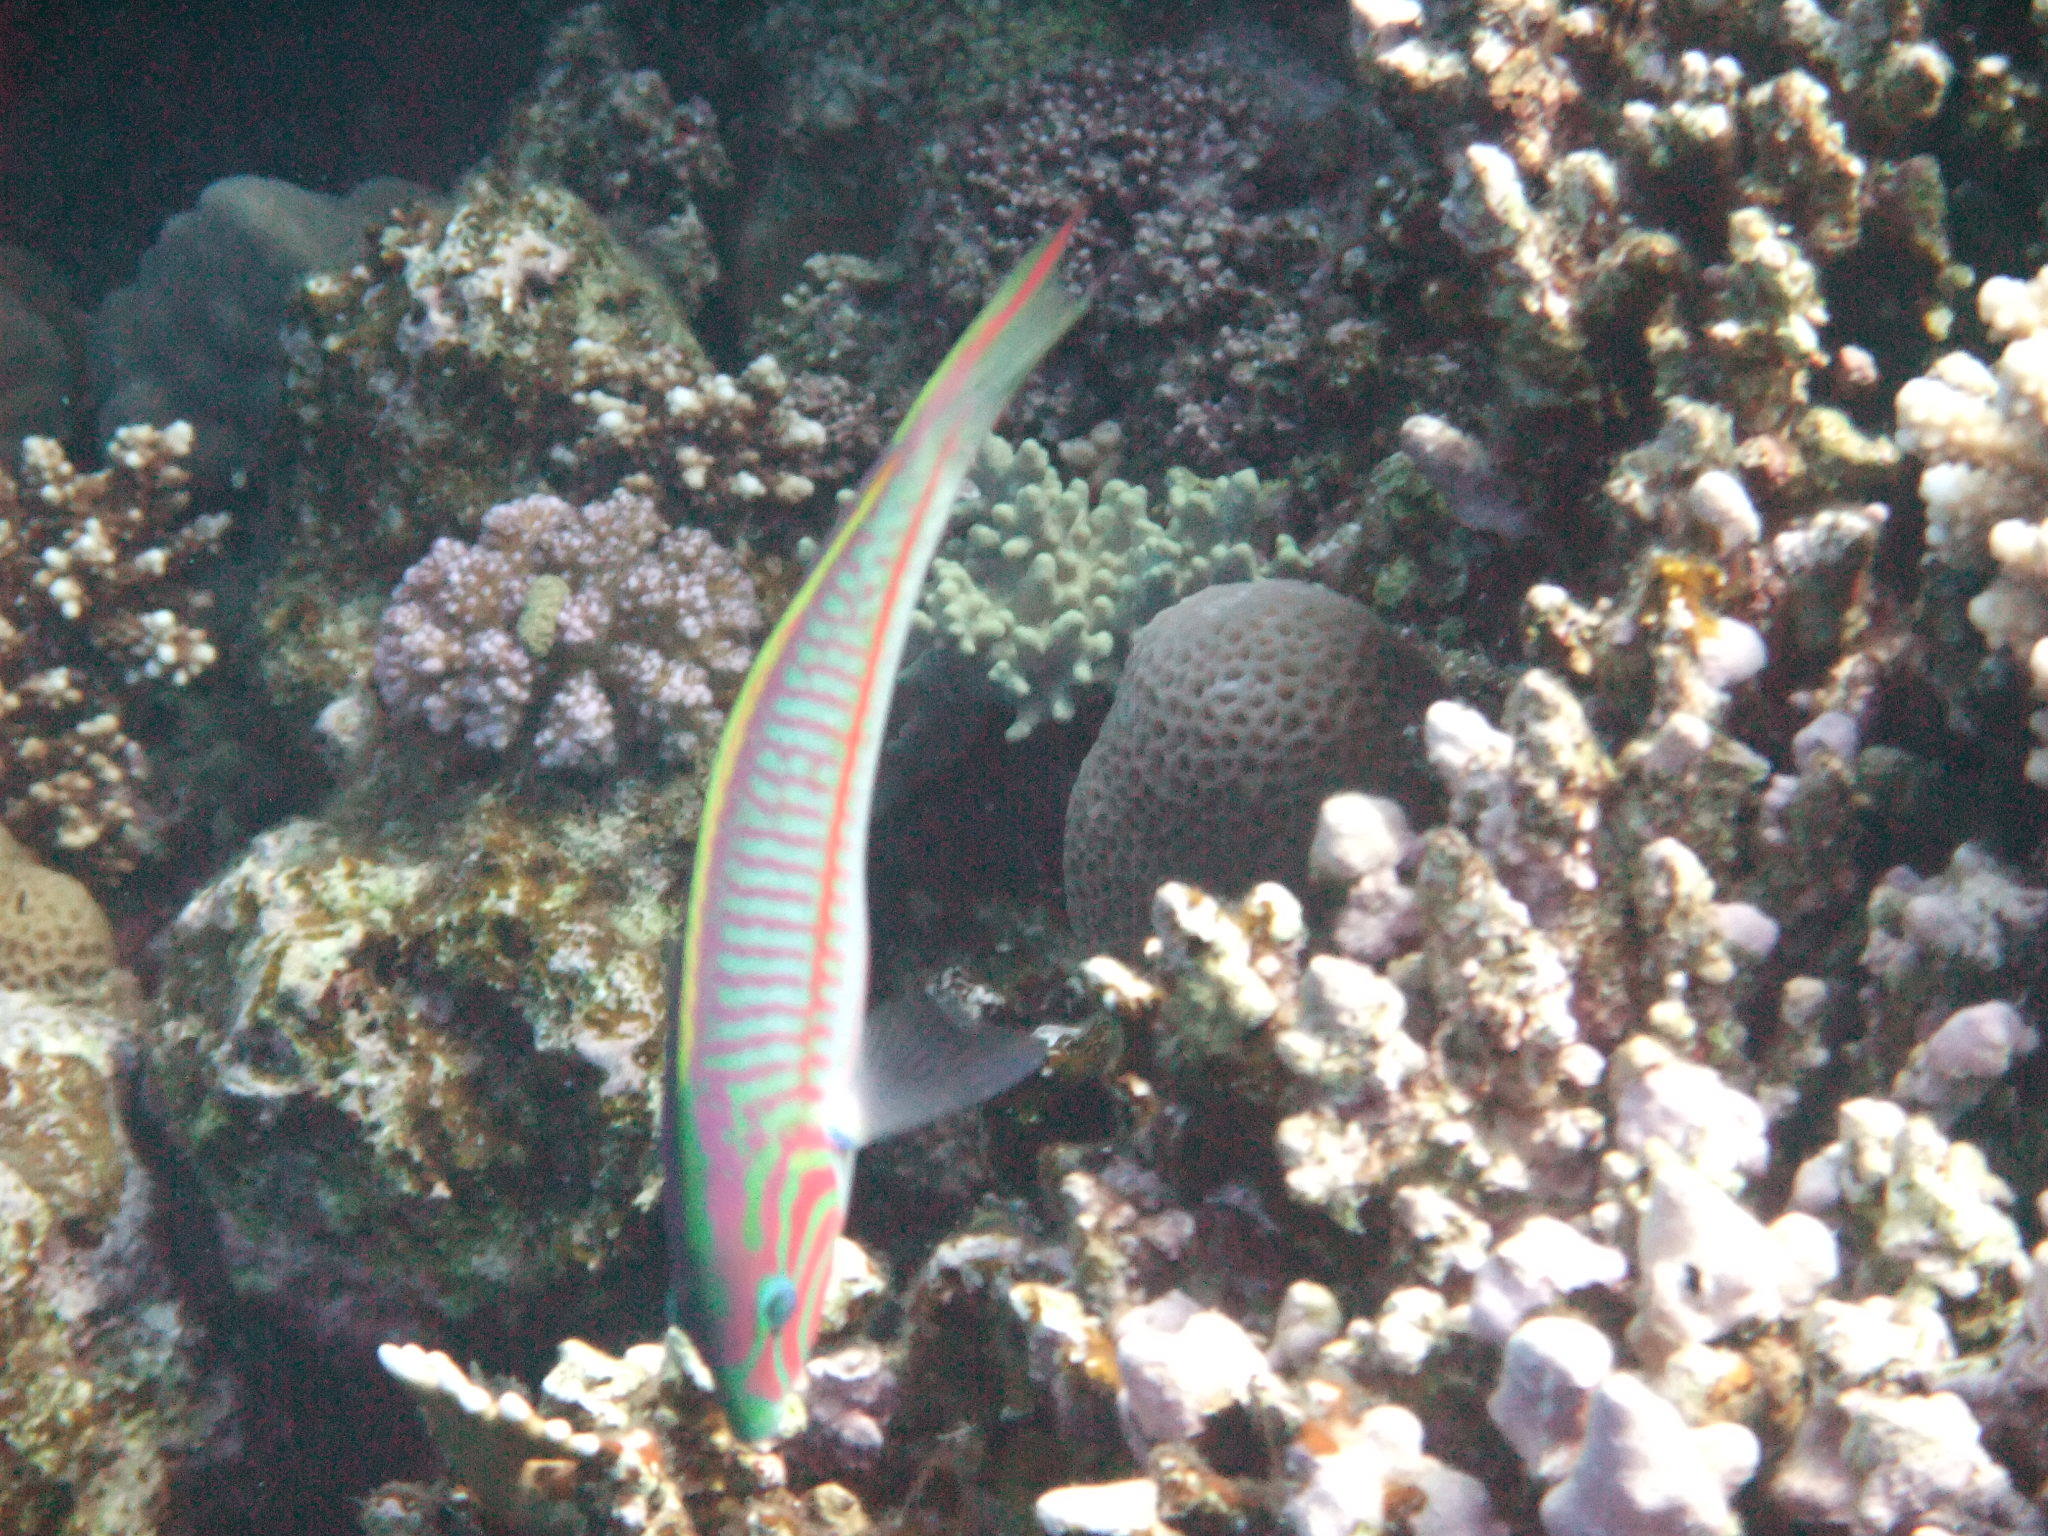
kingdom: Animalia
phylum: Chordata
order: Perciformes
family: Labridae
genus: Thalassoma
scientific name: Thalassoma rueppellii
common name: Klunzinger's wrasse
